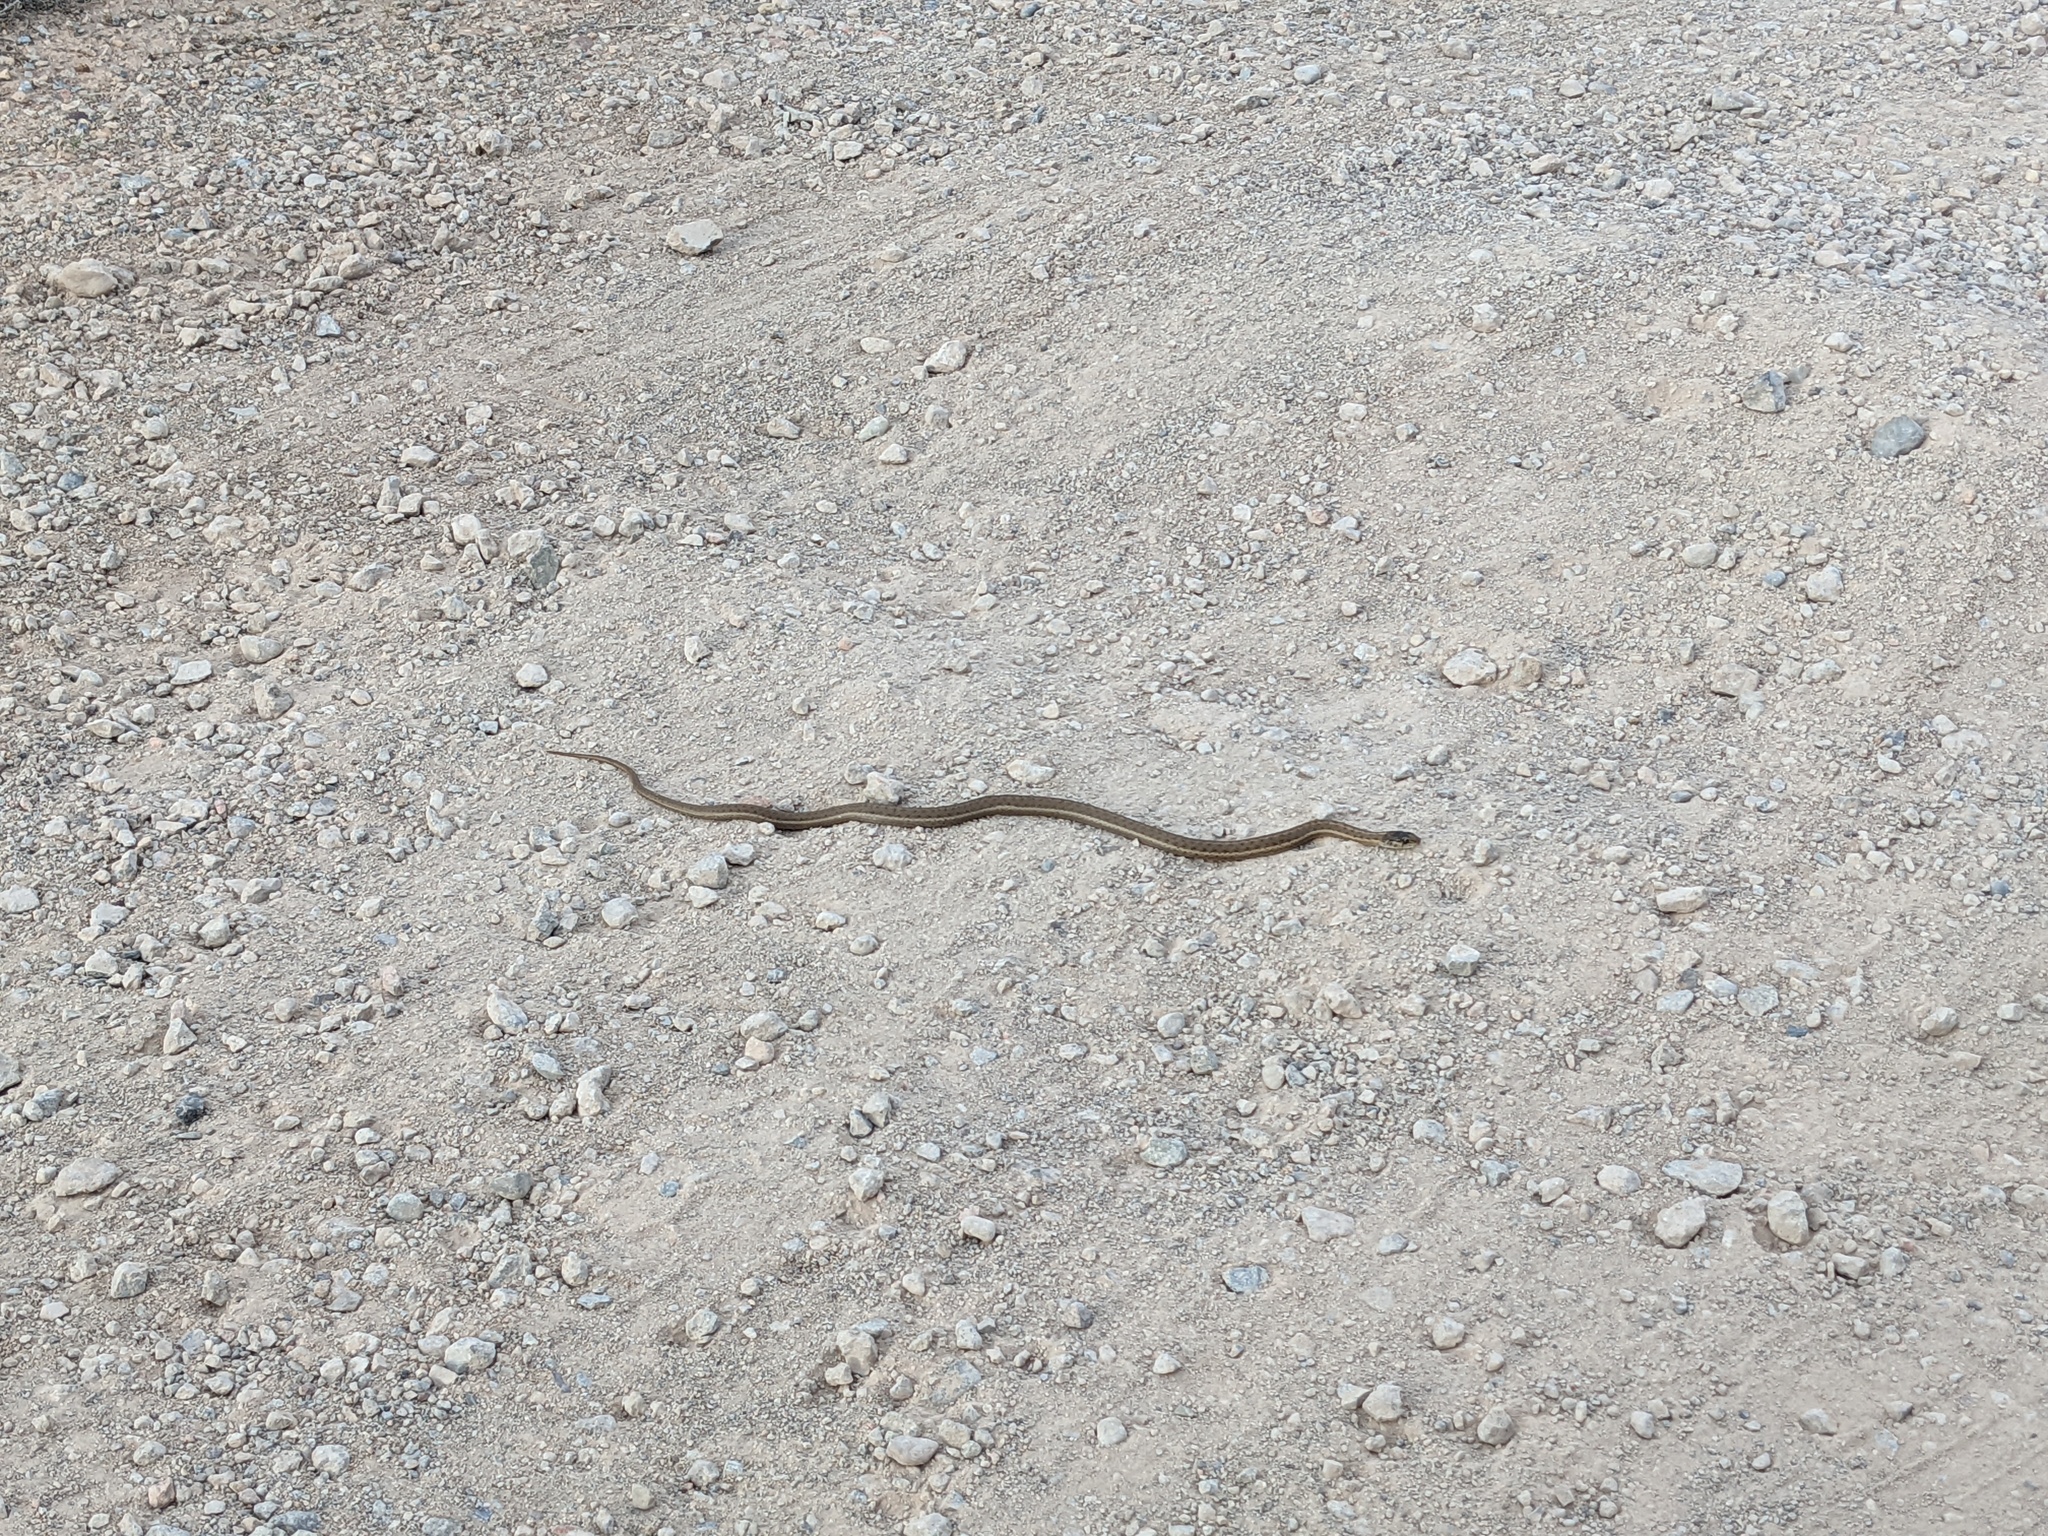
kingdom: Animalia
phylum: Chordata
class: Squamata
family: Colubridae
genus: Thamnophis
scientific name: Thamnophis elegans
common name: Western terrestrial garter snake
